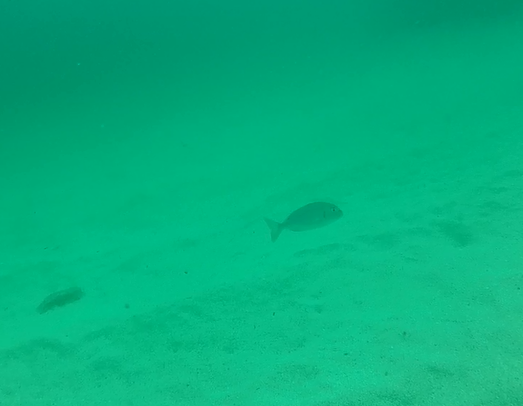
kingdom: Animalia
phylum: Chordata
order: Perciformes
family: Sparidae
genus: Sparus
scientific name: Sparus aurata
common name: Gilthead
